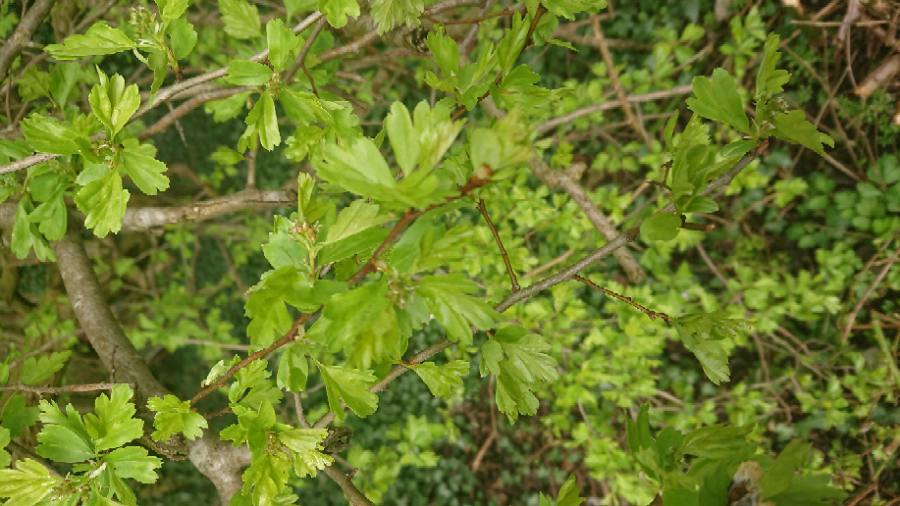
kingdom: Plantae
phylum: Tracheophyta
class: Magnoliopsida
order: Rosales
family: Rosaceae
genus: Crataegus
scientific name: Crataegus monogyna
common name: Hawthorn
